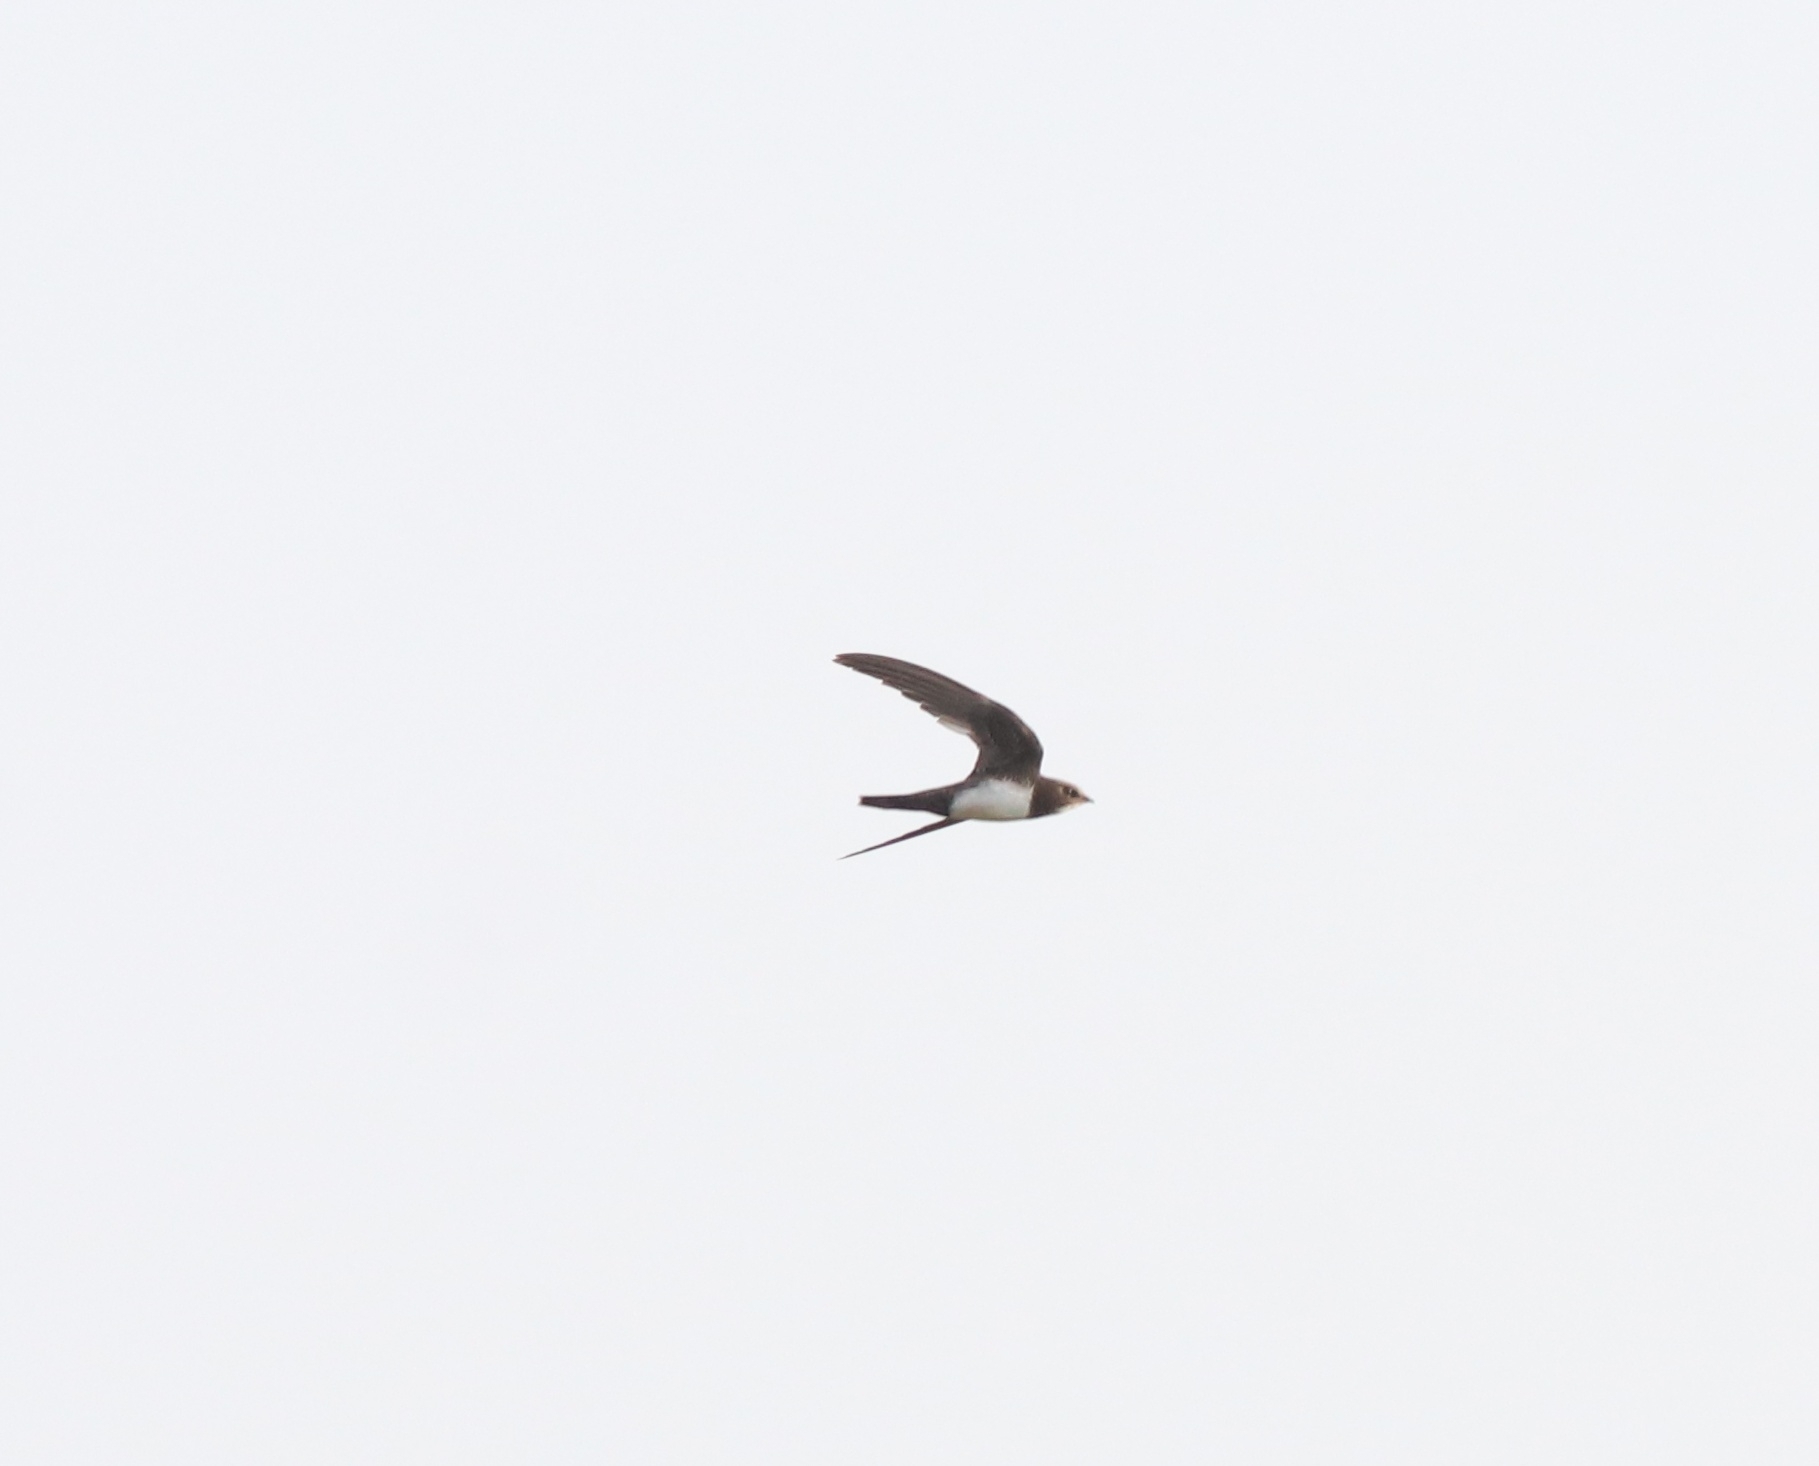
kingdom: Animalia
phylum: Chordata
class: Aves
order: Apodiformes
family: Apodidae
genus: Tachymarptis
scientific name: Tachymarptis melba
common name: Alpine swift
